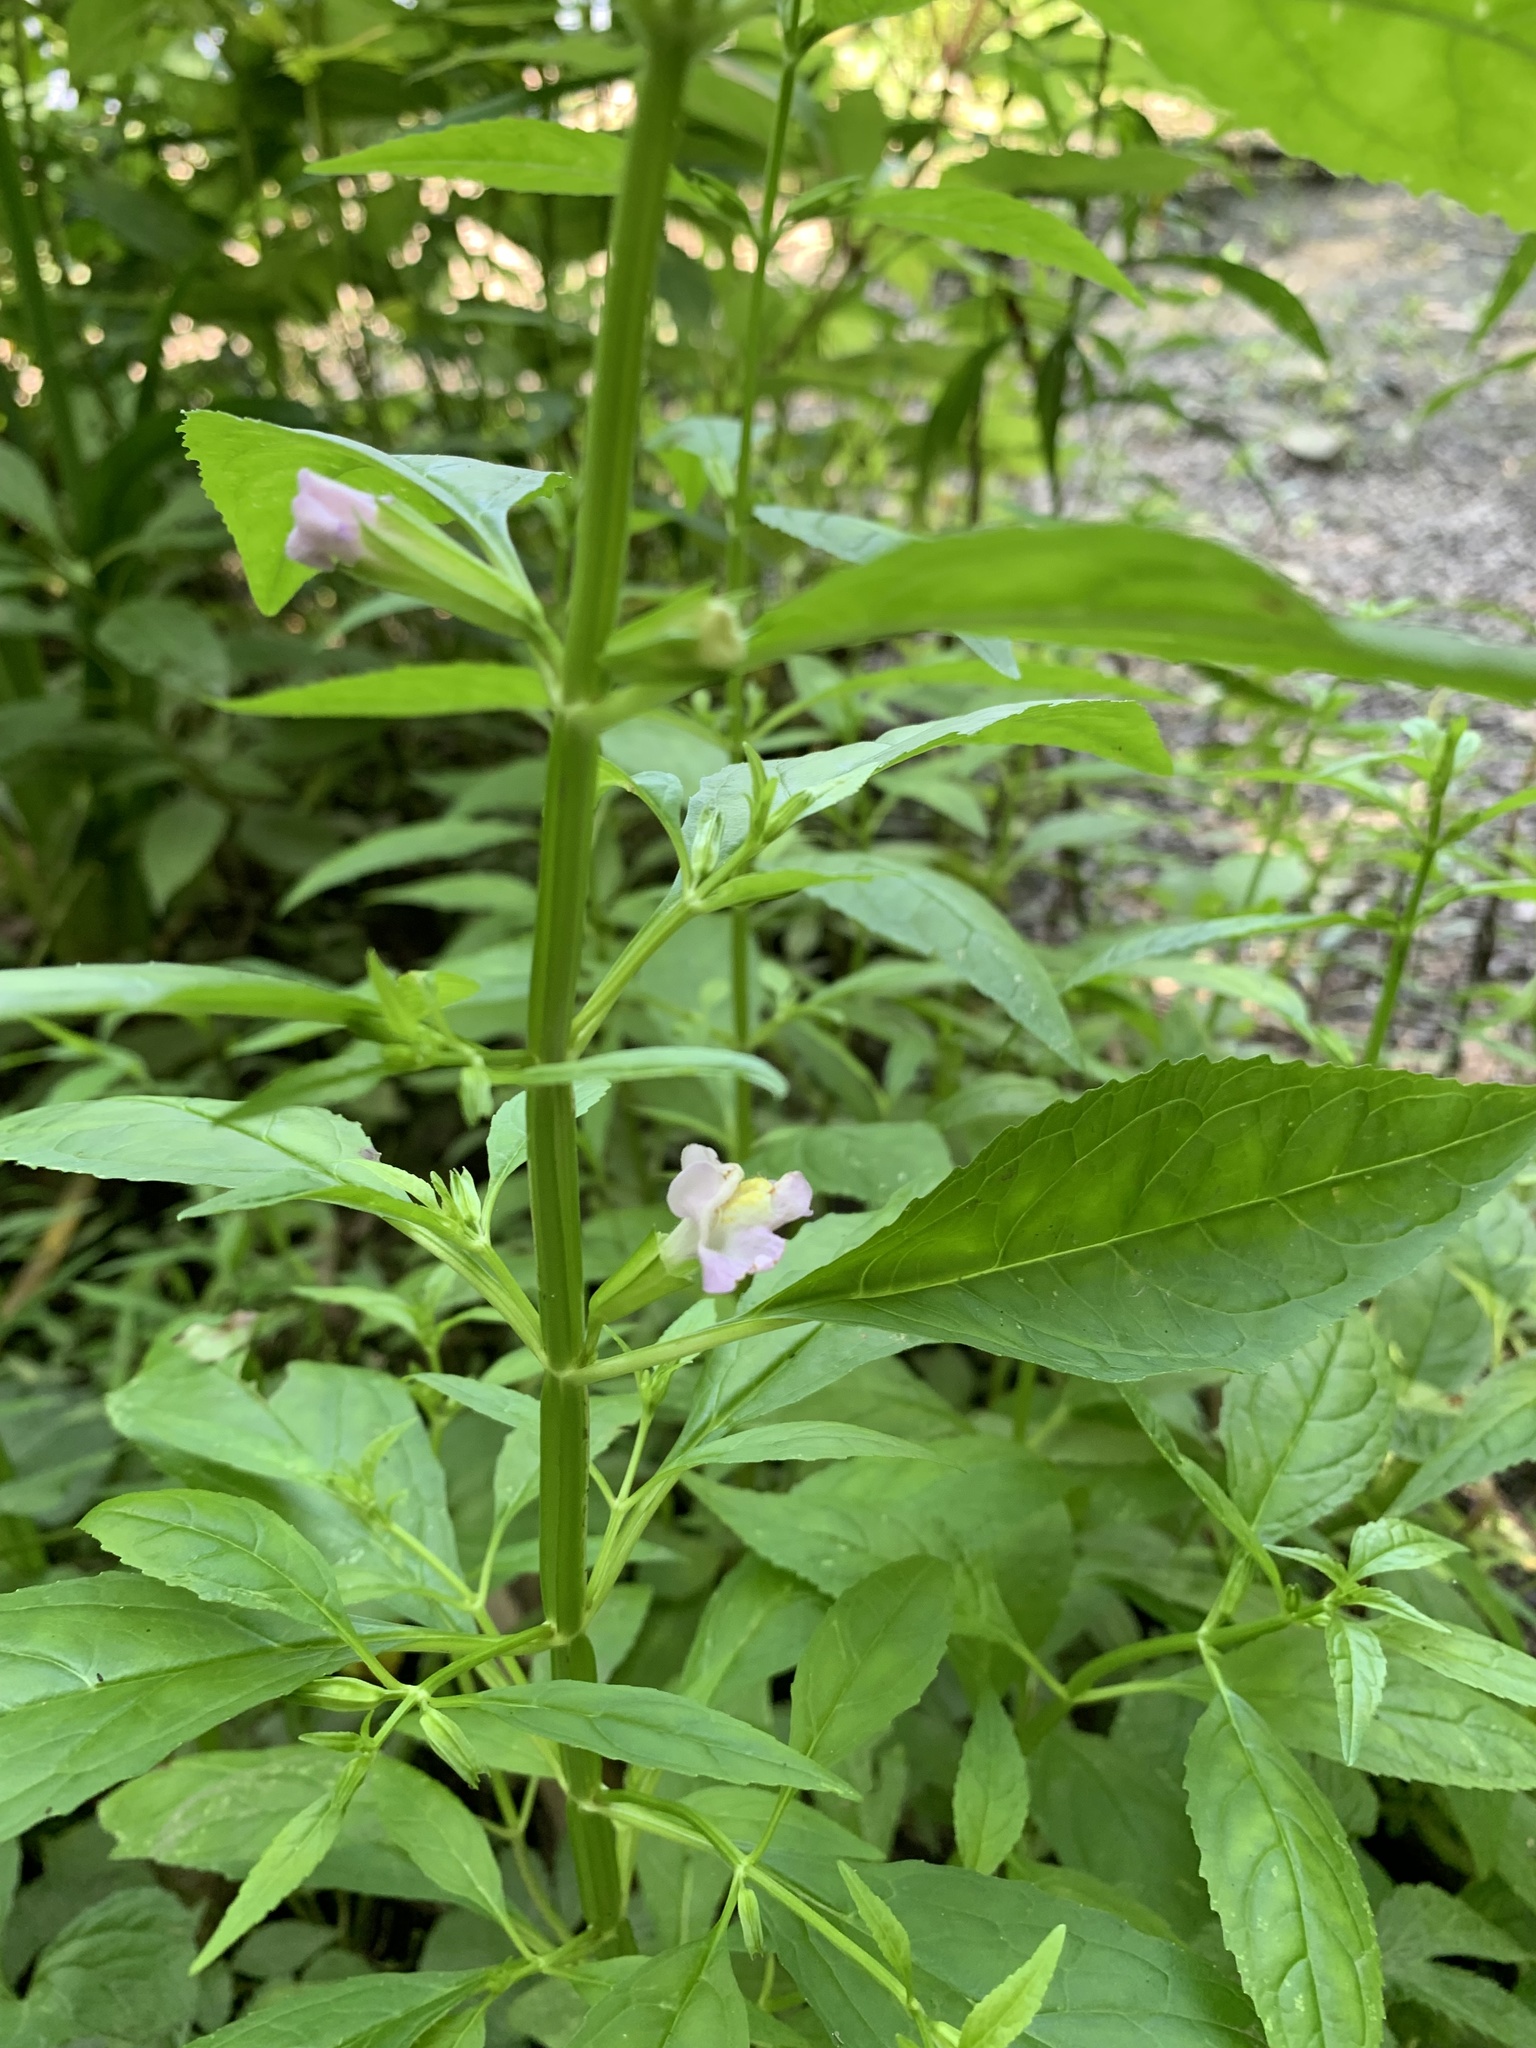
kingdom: Plantae
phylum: Tracheophyta
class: Magnoliopsida
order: Lamiales
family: Phrymaceae
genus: Mimulus
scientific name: Mimulus alatus
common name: Sharp-wing monkey-flower
